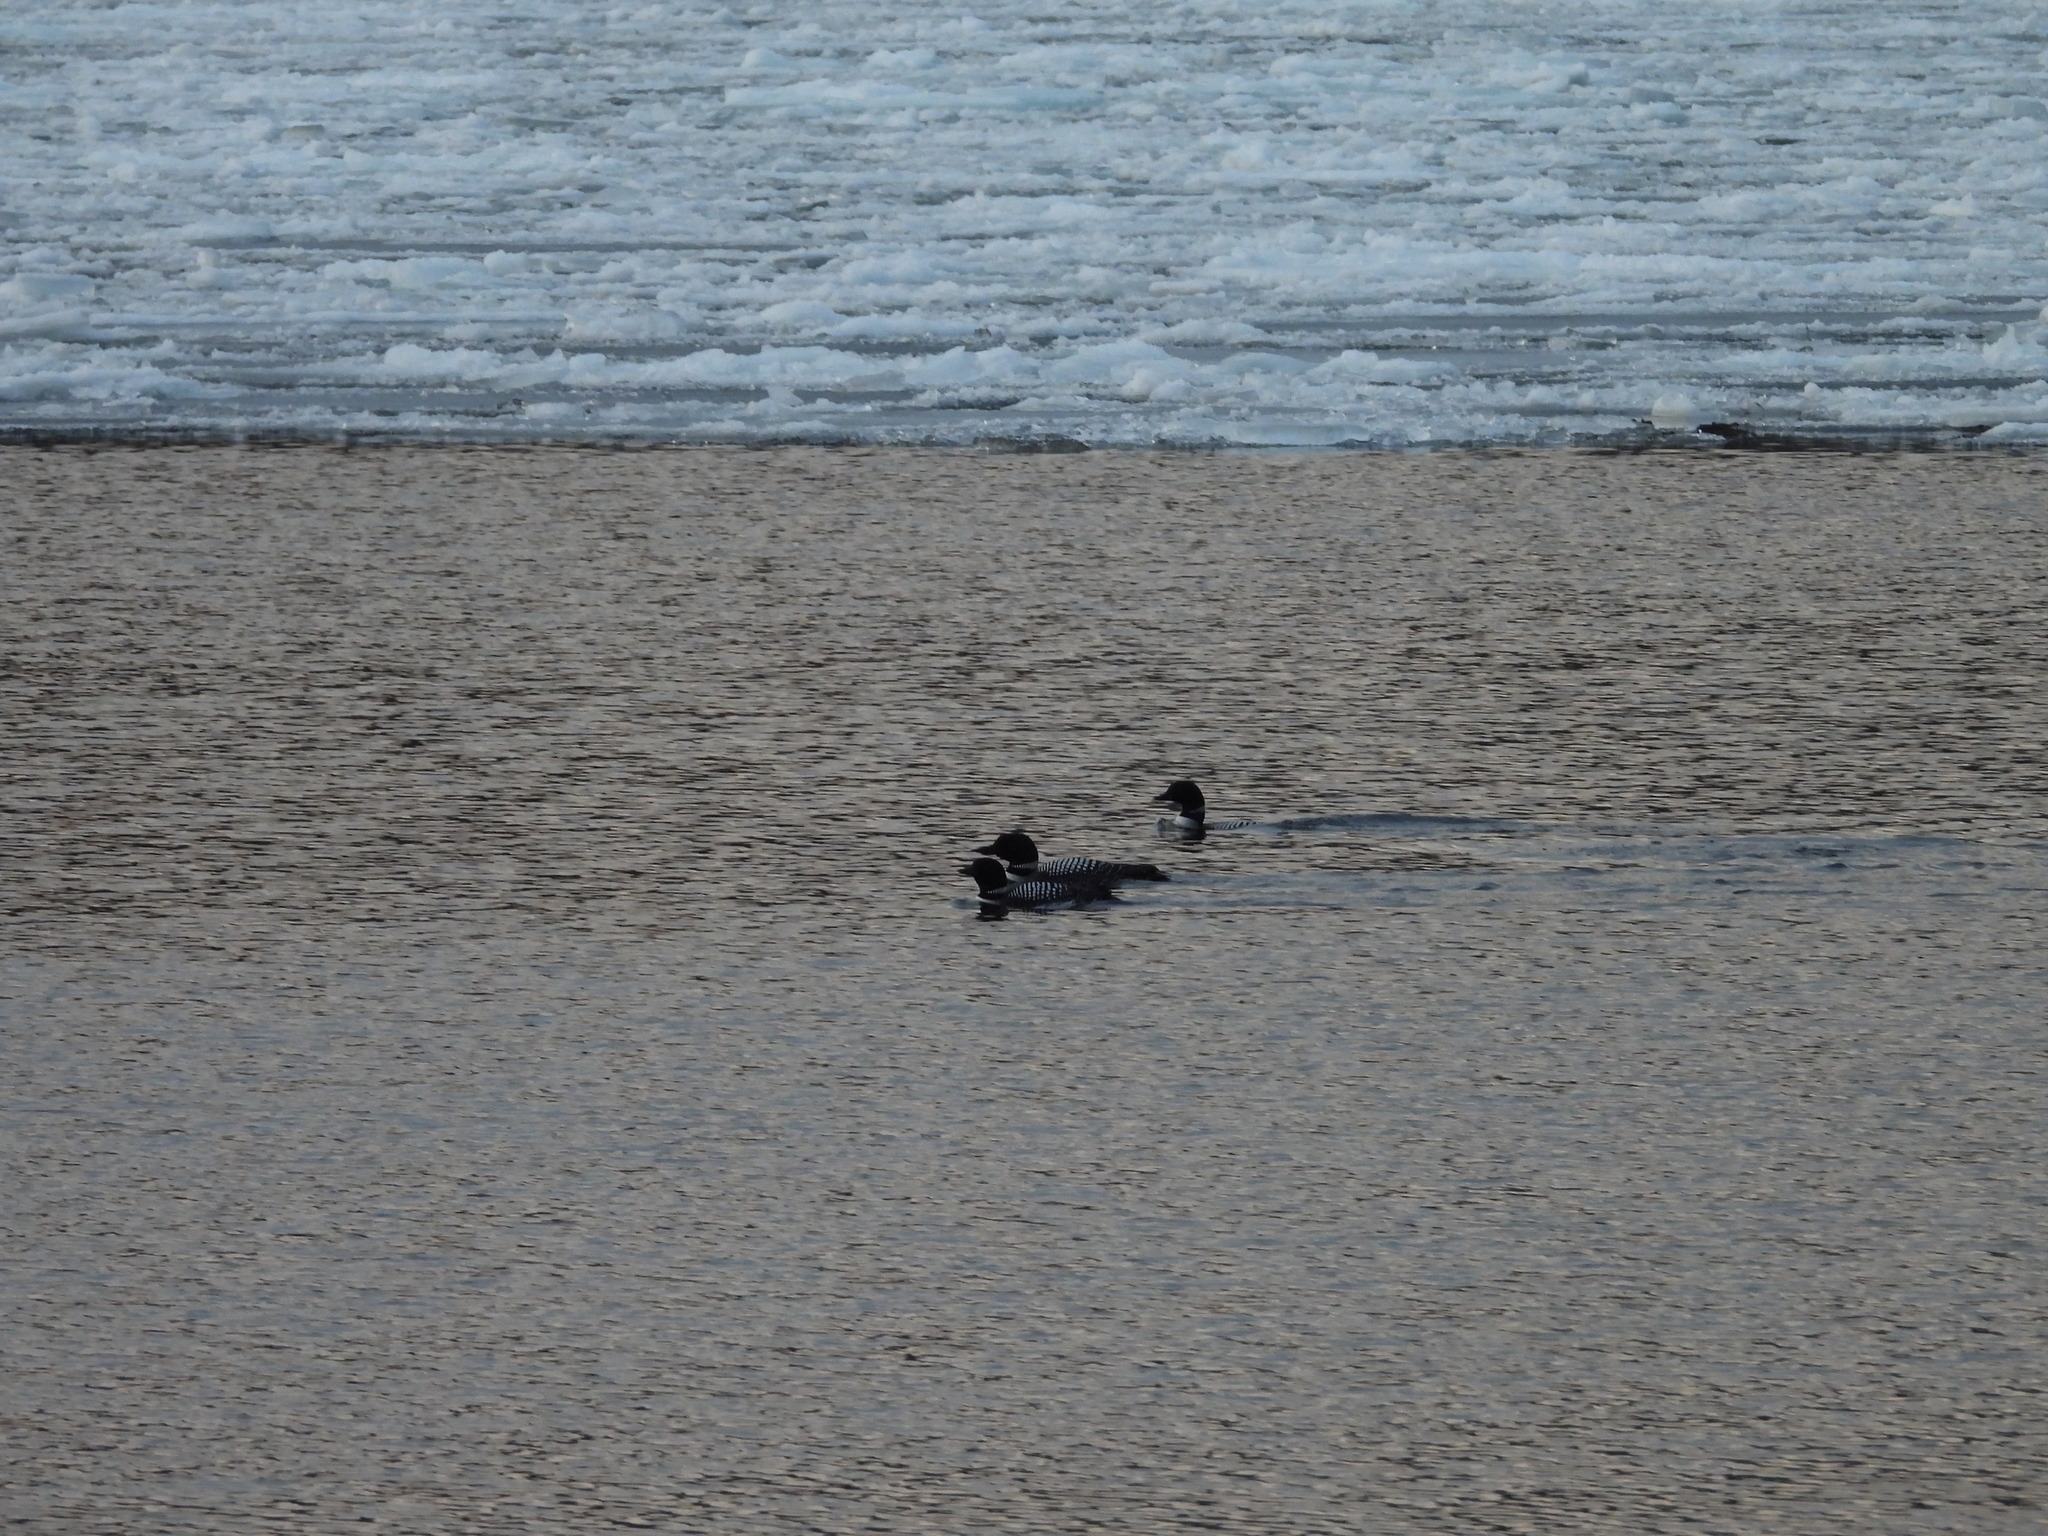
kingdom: Animalia
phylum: Chordata
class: Aves
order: Gaviiformes
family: Gaviidae
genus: Gavia
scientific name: Gavia immer
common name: Common loon
